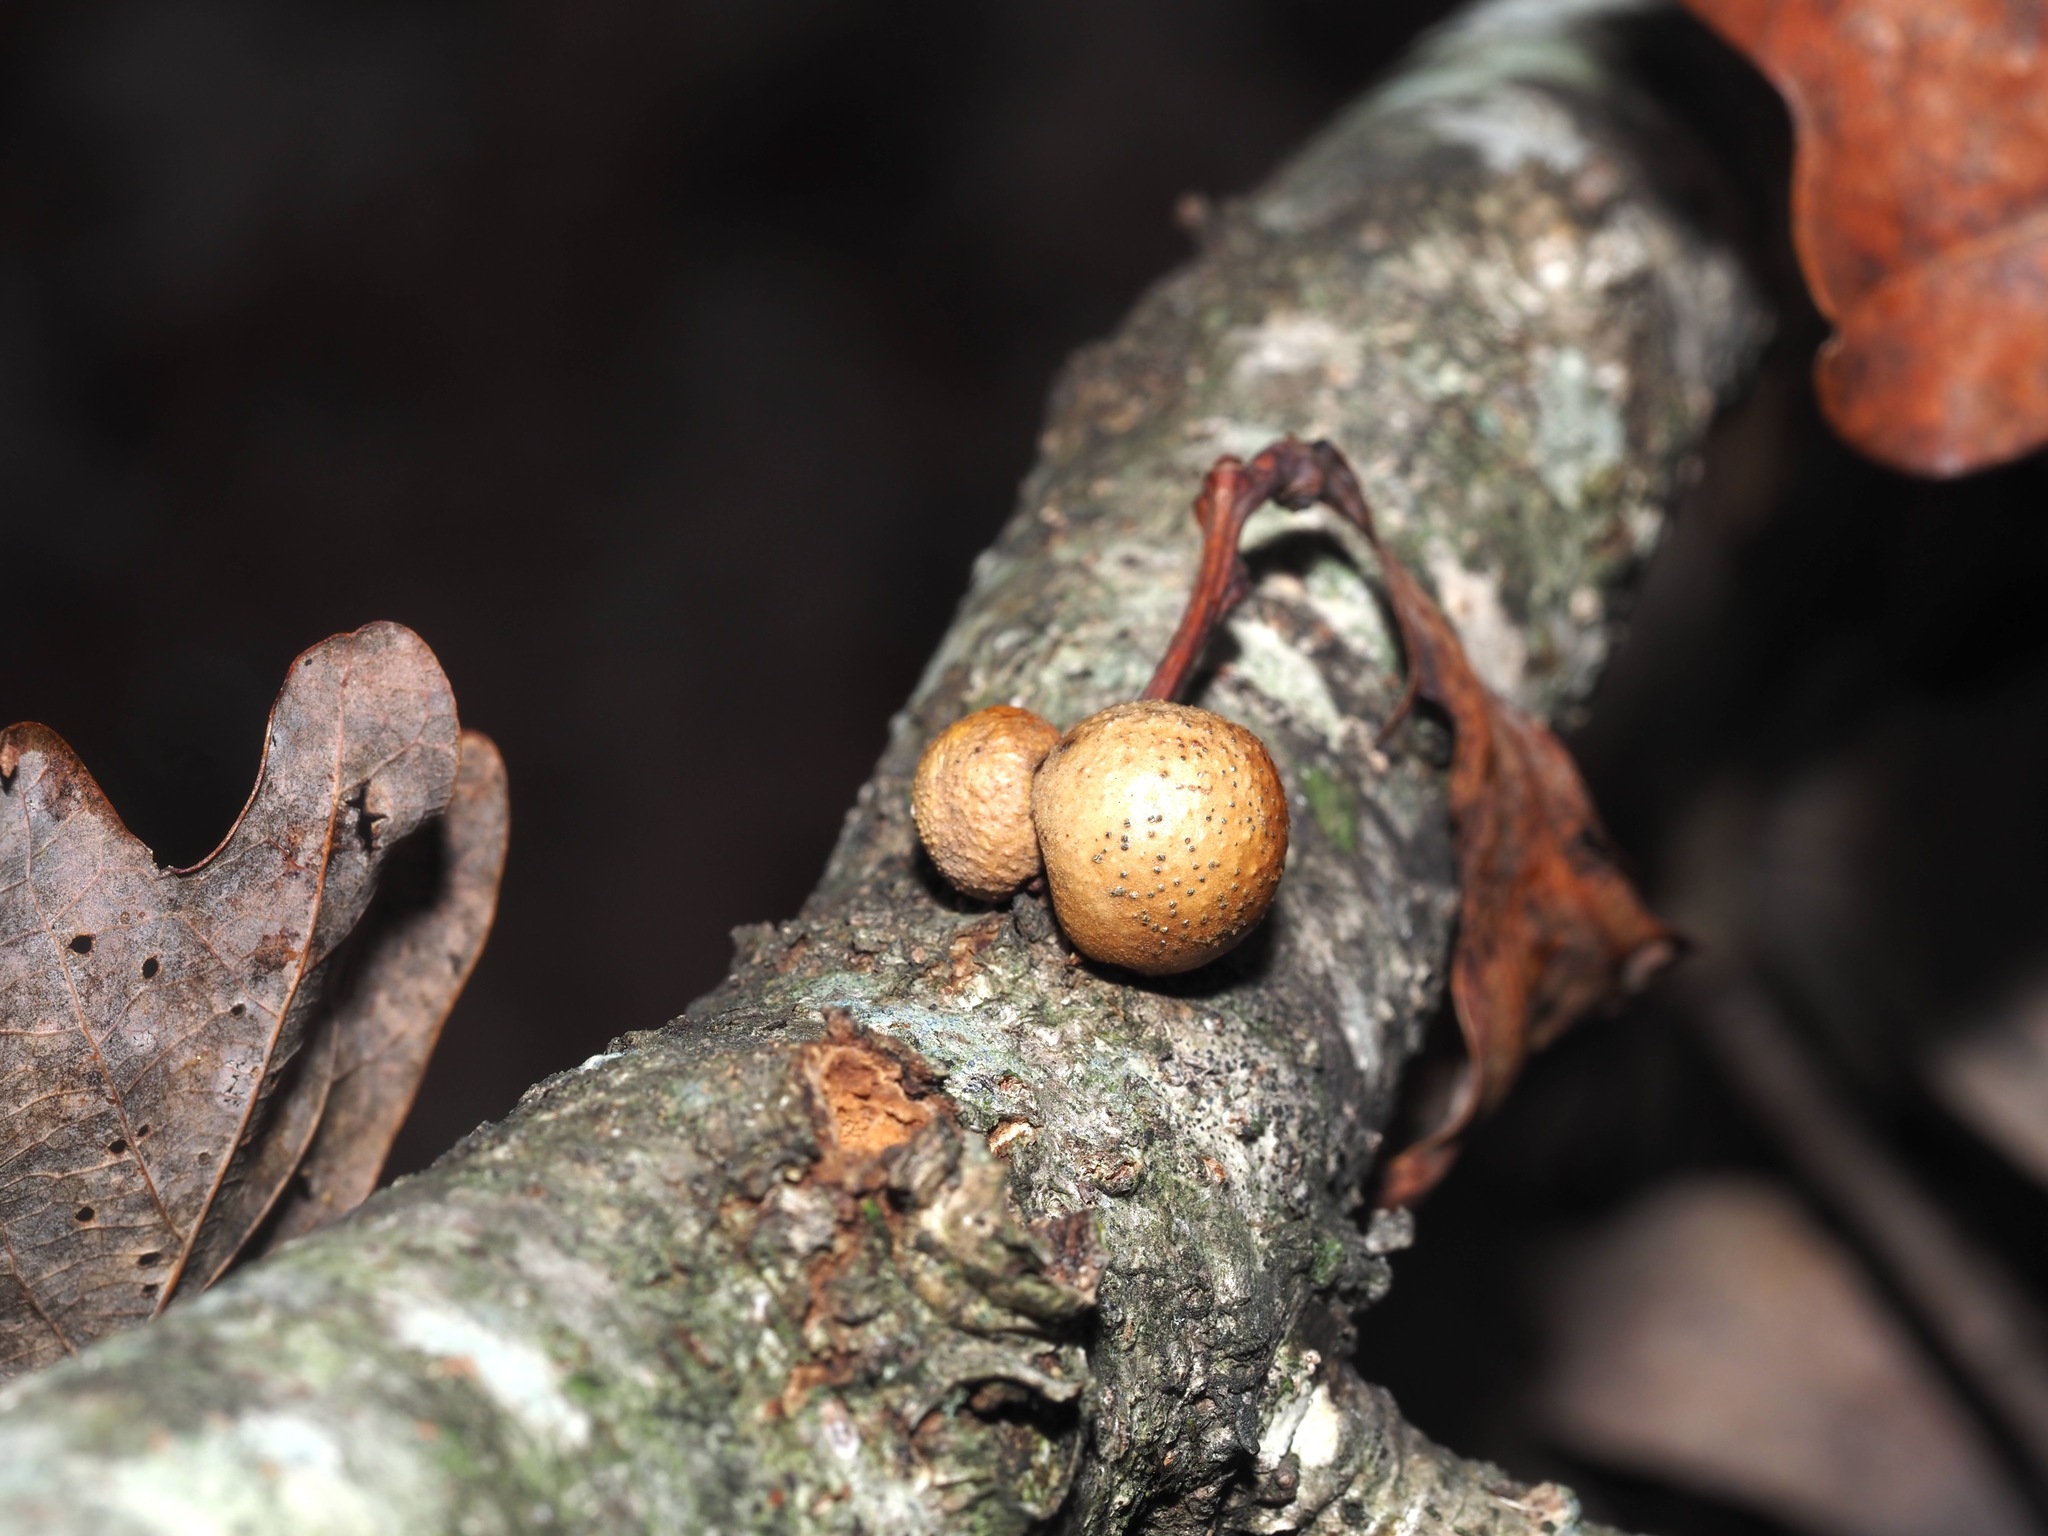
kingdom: Animalia
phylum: Arthropoda
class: Insecta
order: Hymenoptera
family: Cynipidae
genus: Disholcaspis
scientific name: Disholcaspis quercusglobulus
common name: Round bullet gall wasp
